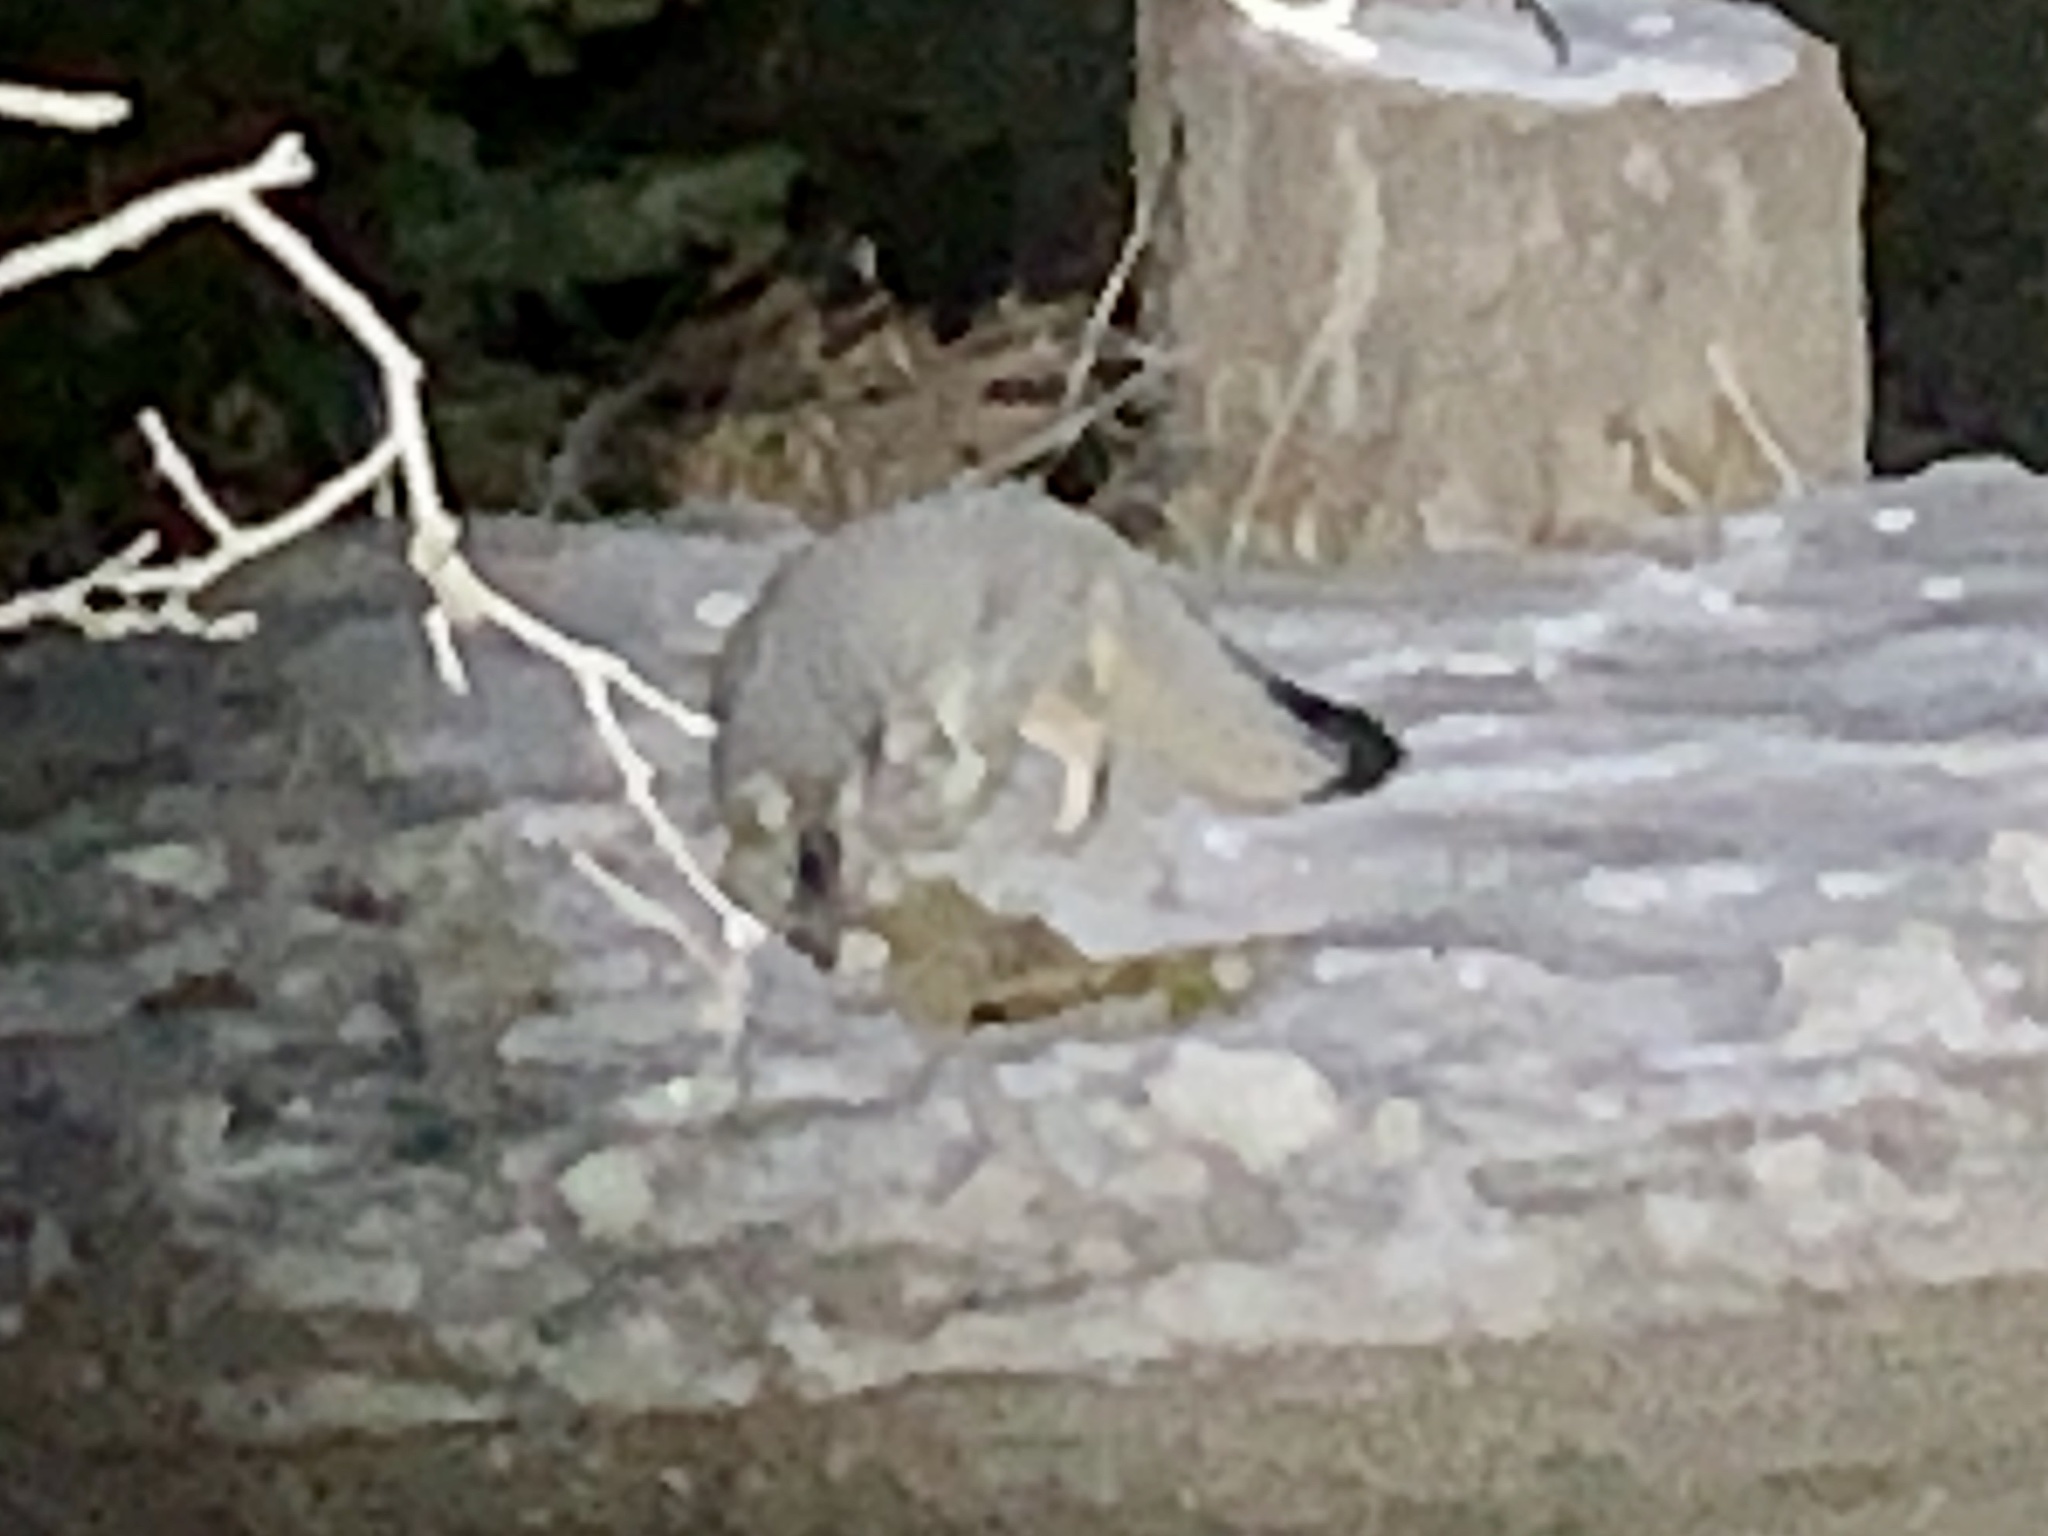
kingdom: Animalia
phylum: Chordata
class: Mammalia
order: Carnivora
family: Canidae
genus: Urocyon
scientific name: Urocyon cinereoargenteus
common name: Gray fox
